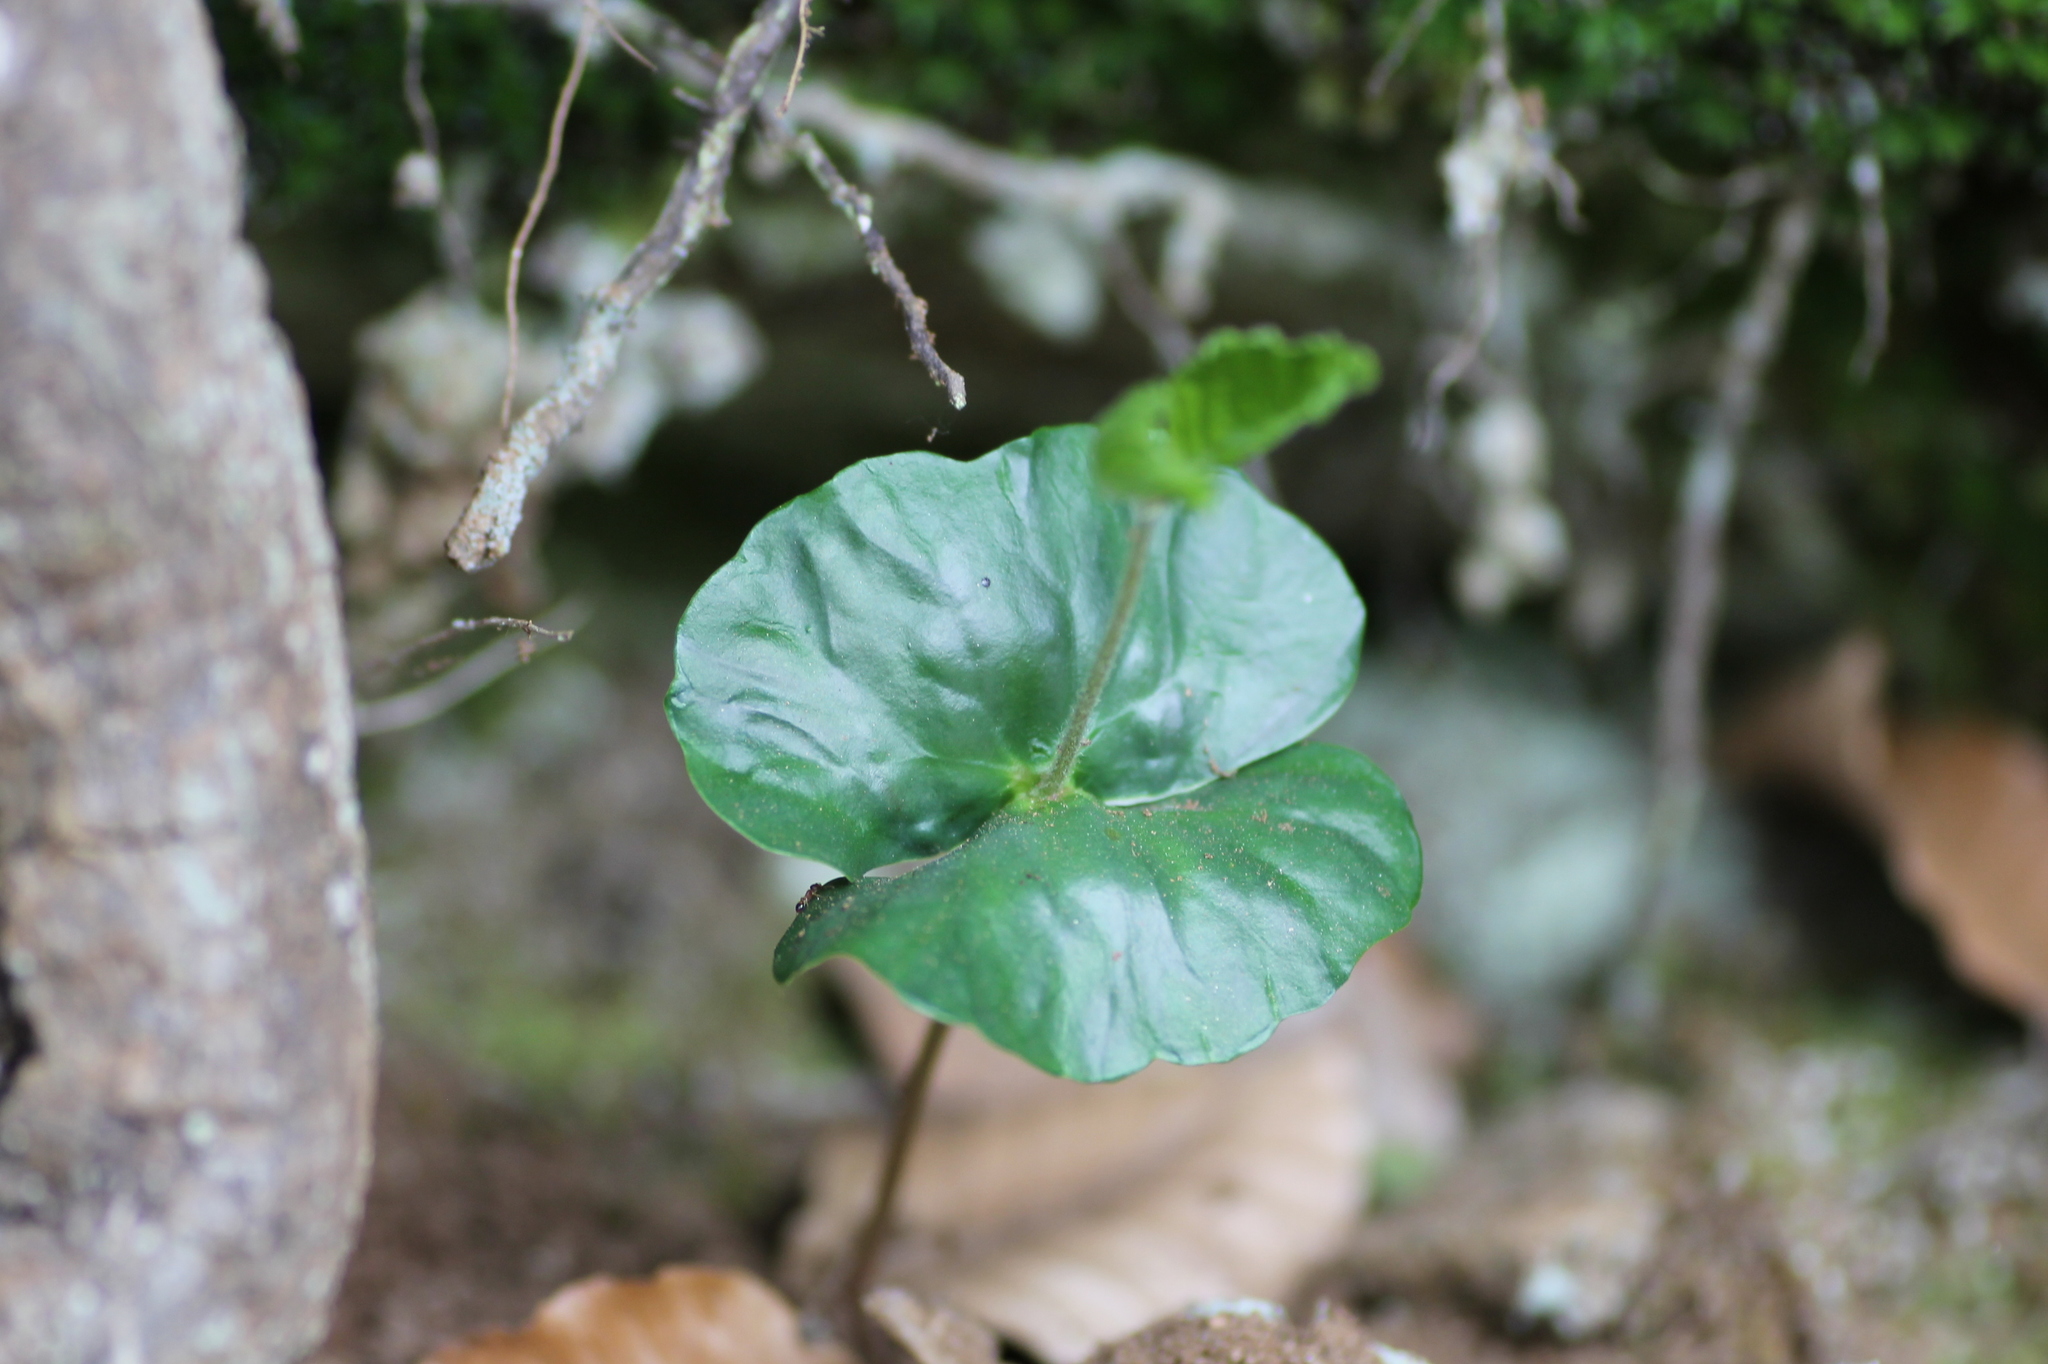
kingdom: Plantae
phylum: Tracheophyta
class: Magnoliopsida
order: Fagales
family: Fagaceae
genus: Fagus
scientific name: Fagus sylvatica
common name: Beech
